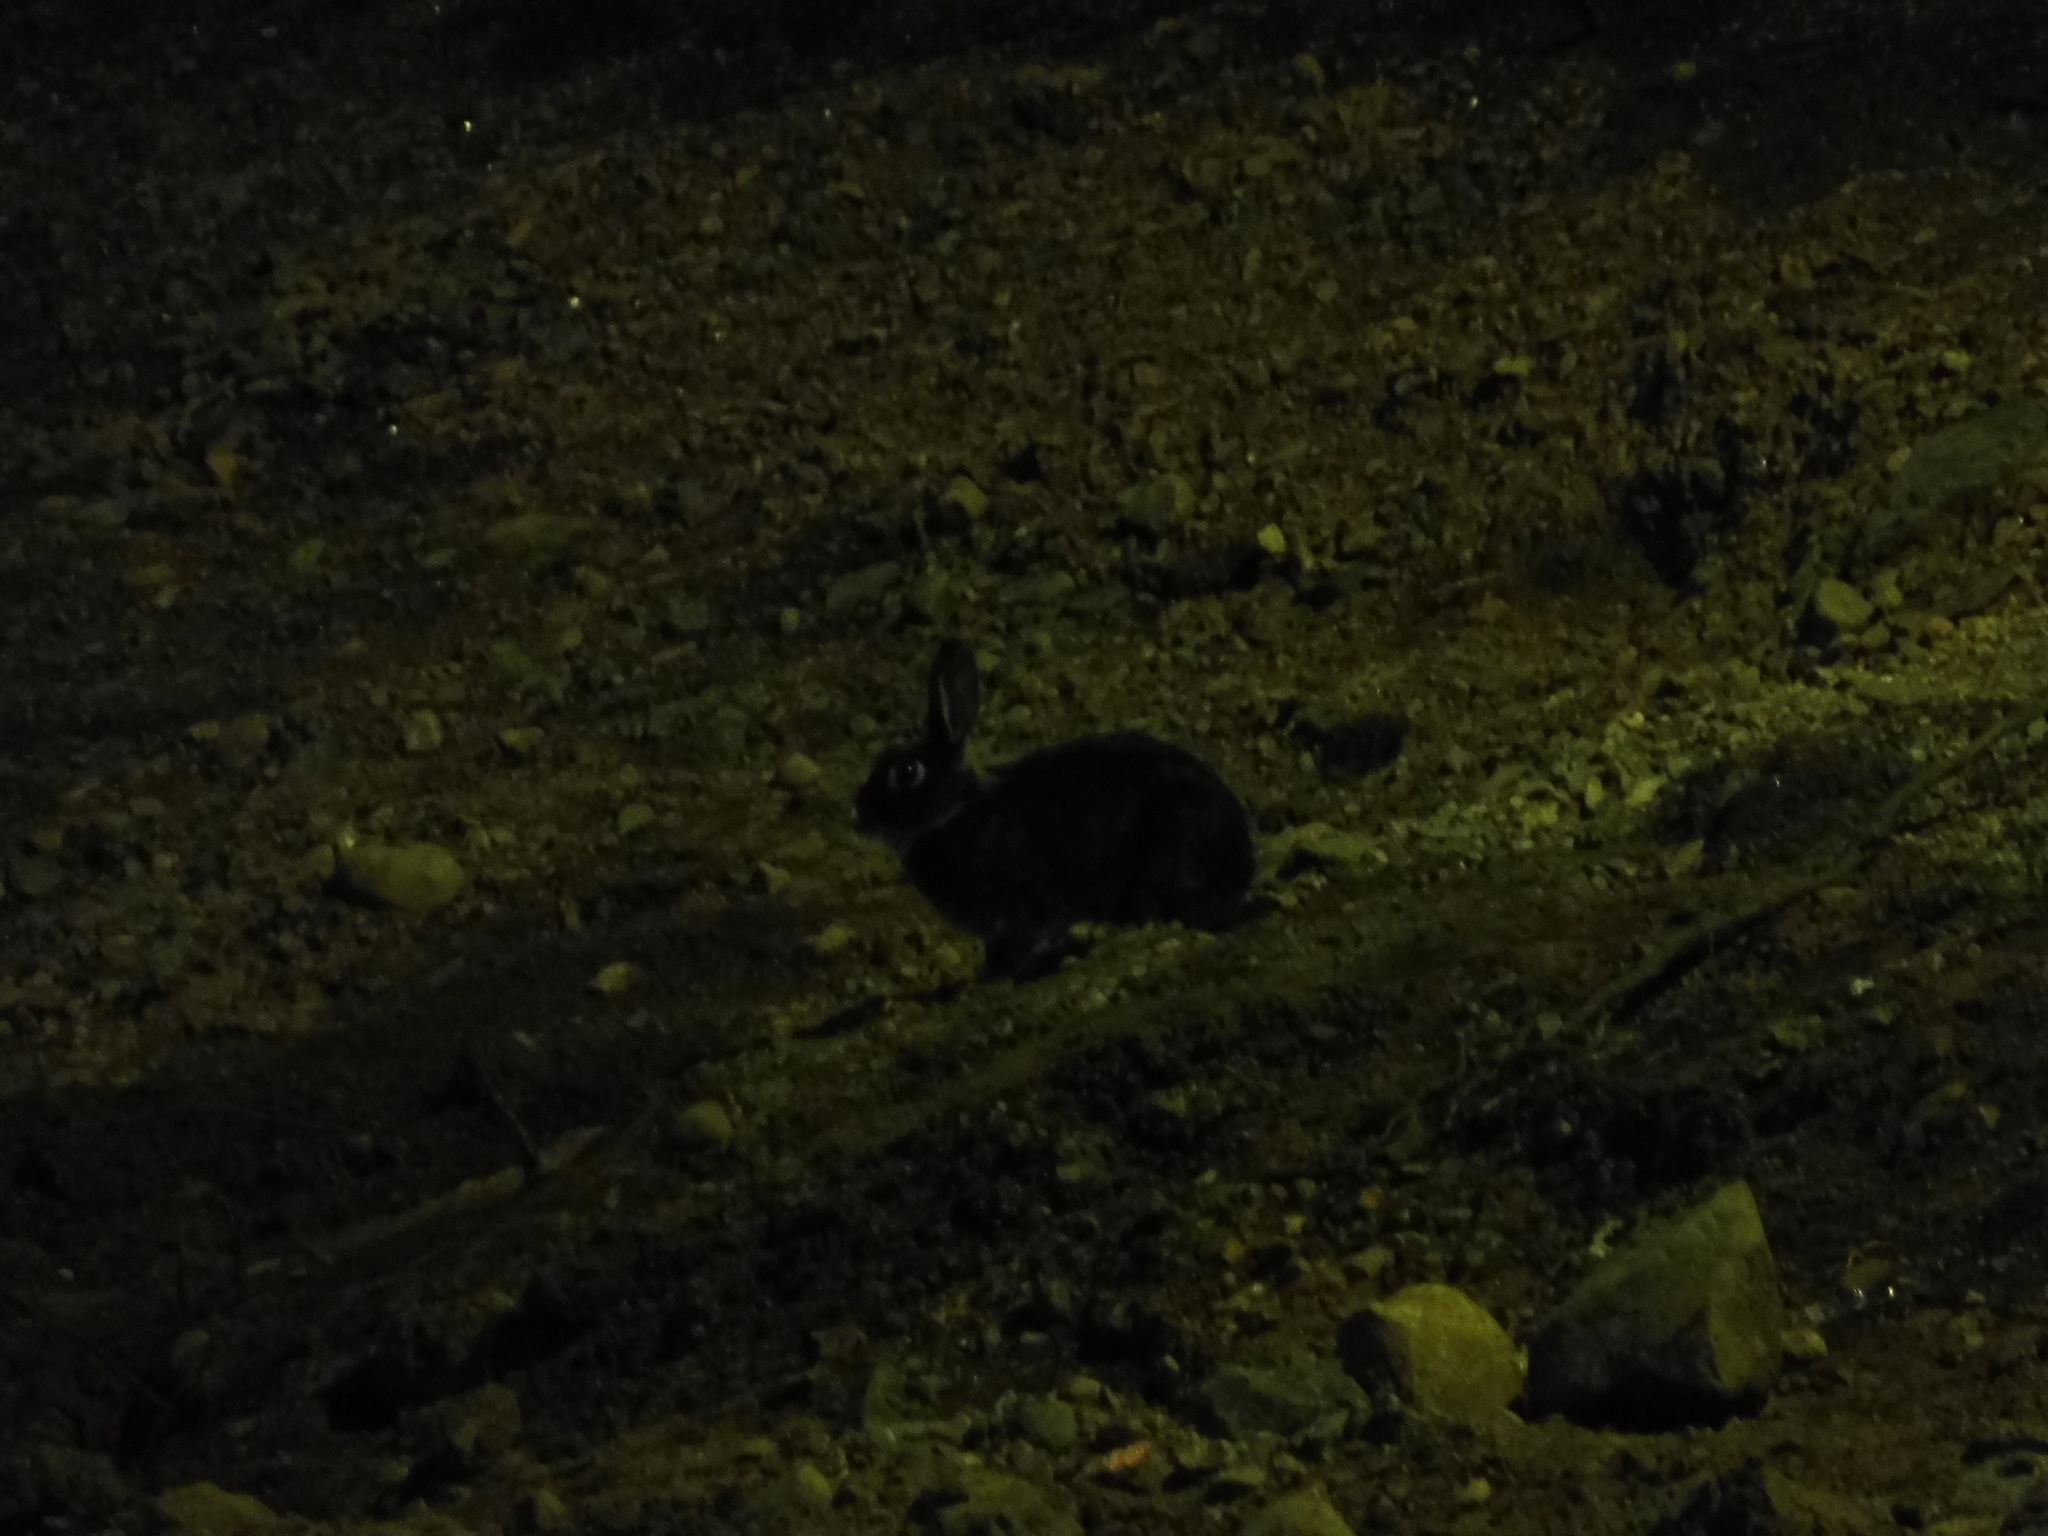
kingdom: Animalia
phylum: Chordata
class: Mammalia
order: Lagomorpha
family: Leporidae
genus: Oryctolagus
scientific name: Oryctolagus cuniculus
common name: European rabbit
